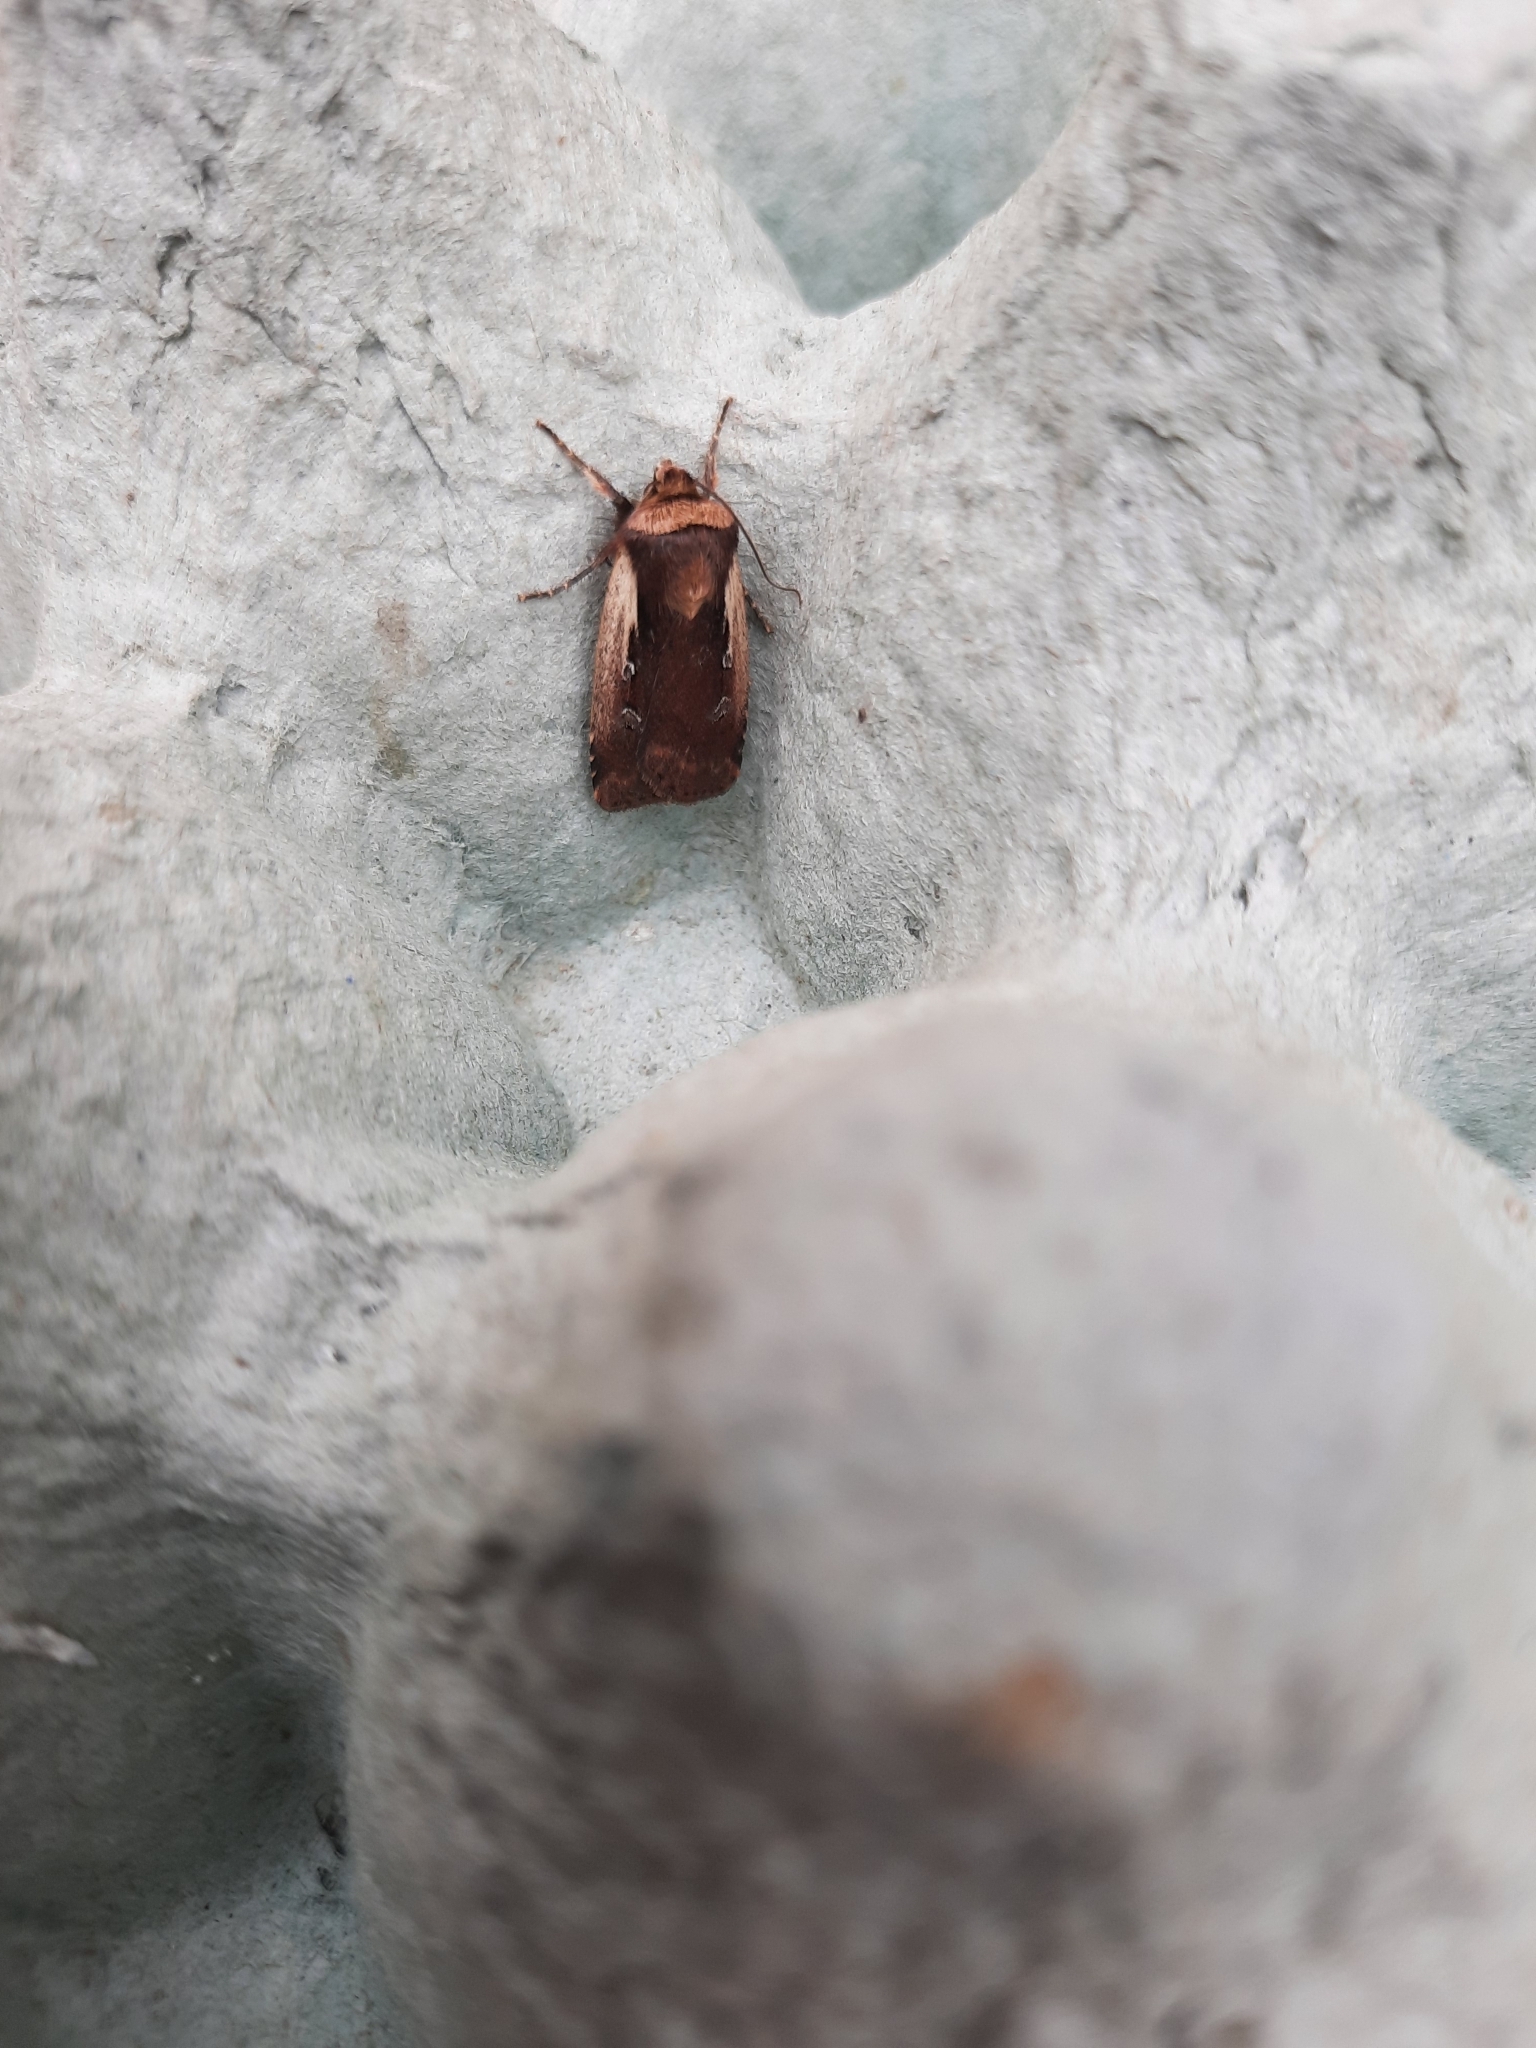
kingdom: Animalia
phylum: Arthropoda
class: Insecta
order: Lepidoptera
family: Noctuidae
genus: Ochropleura
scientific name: Ochropleura plecta
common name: Flame shoulder
